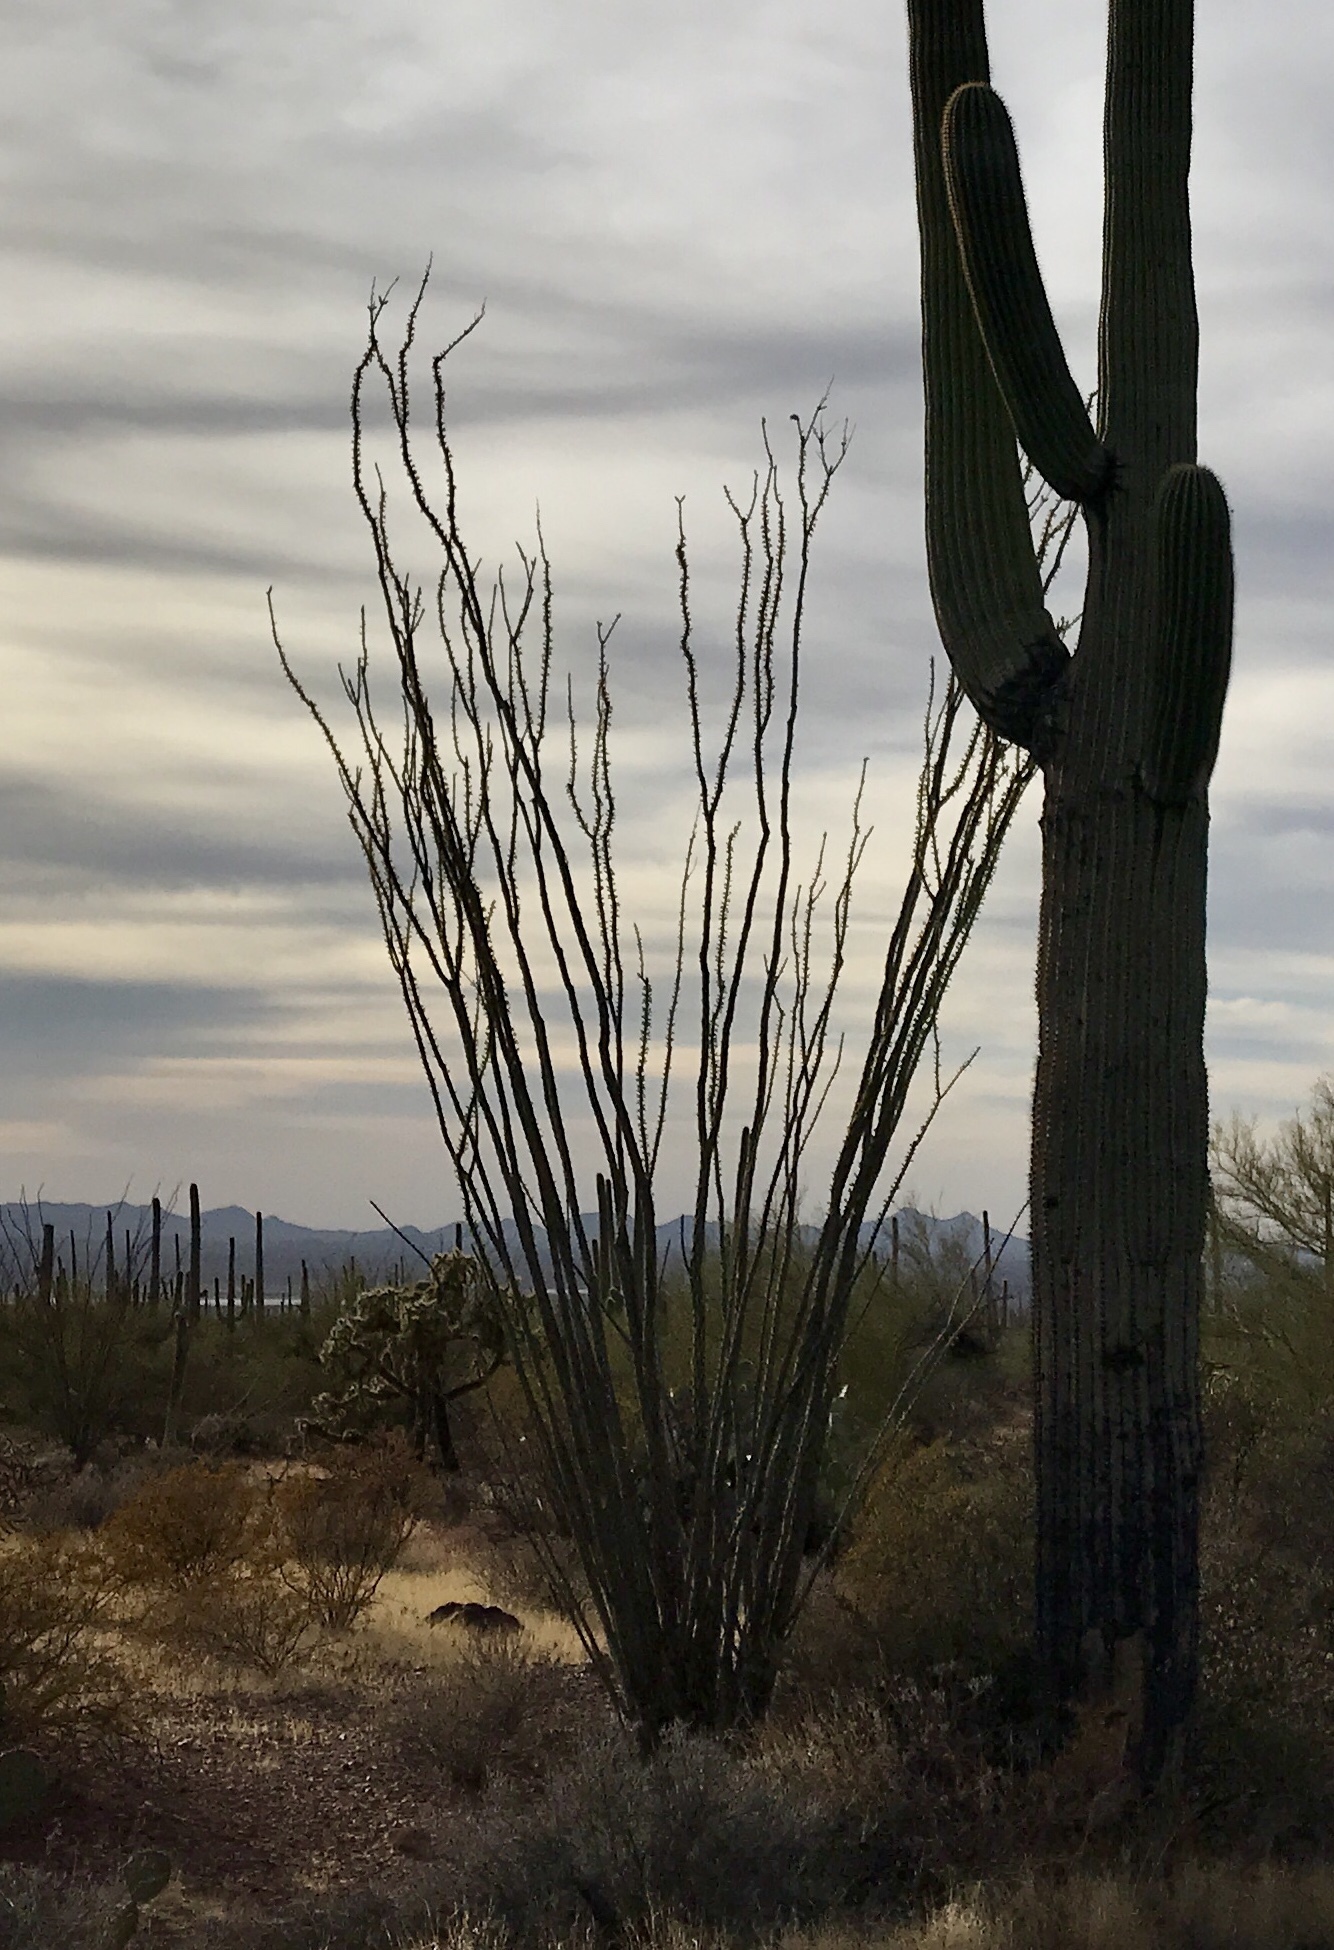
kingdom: Plantae
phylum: Tracheophyta
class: Magnoliopsida
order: Ericales
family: Fouquieriaceae
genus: Fouquieria
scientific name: Fouquieria splendens
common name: Vine-cactus
